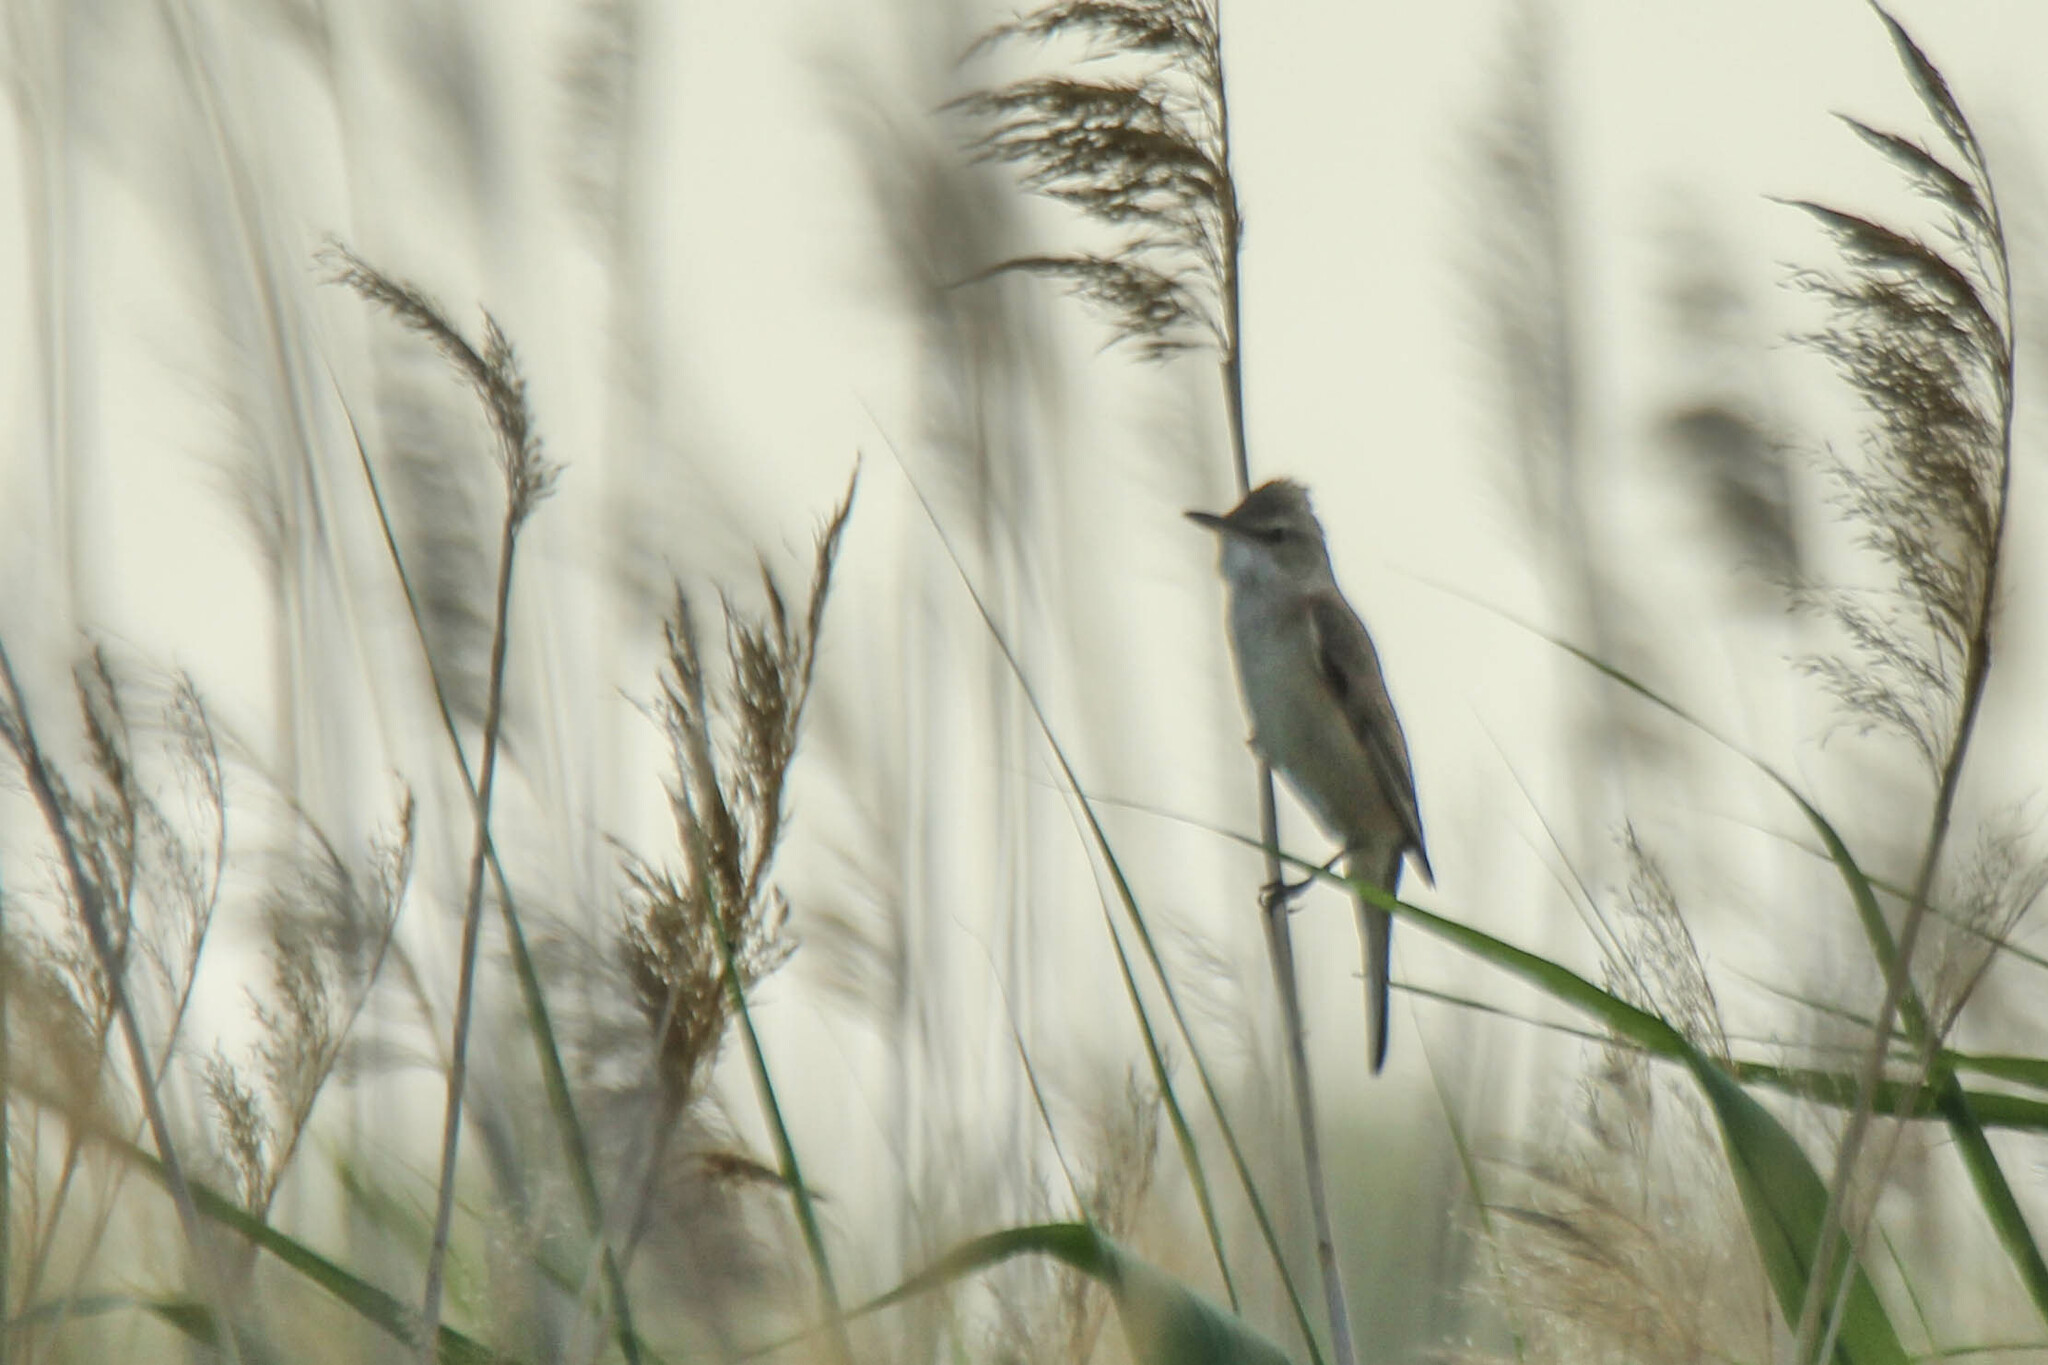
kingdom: Animalia
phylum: Chordata
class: Aves
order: Passeriformes
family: Acrocephalidae
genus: Acrocephalus
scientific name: Acrocephalus arundinaceus
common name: Great reed warbler
